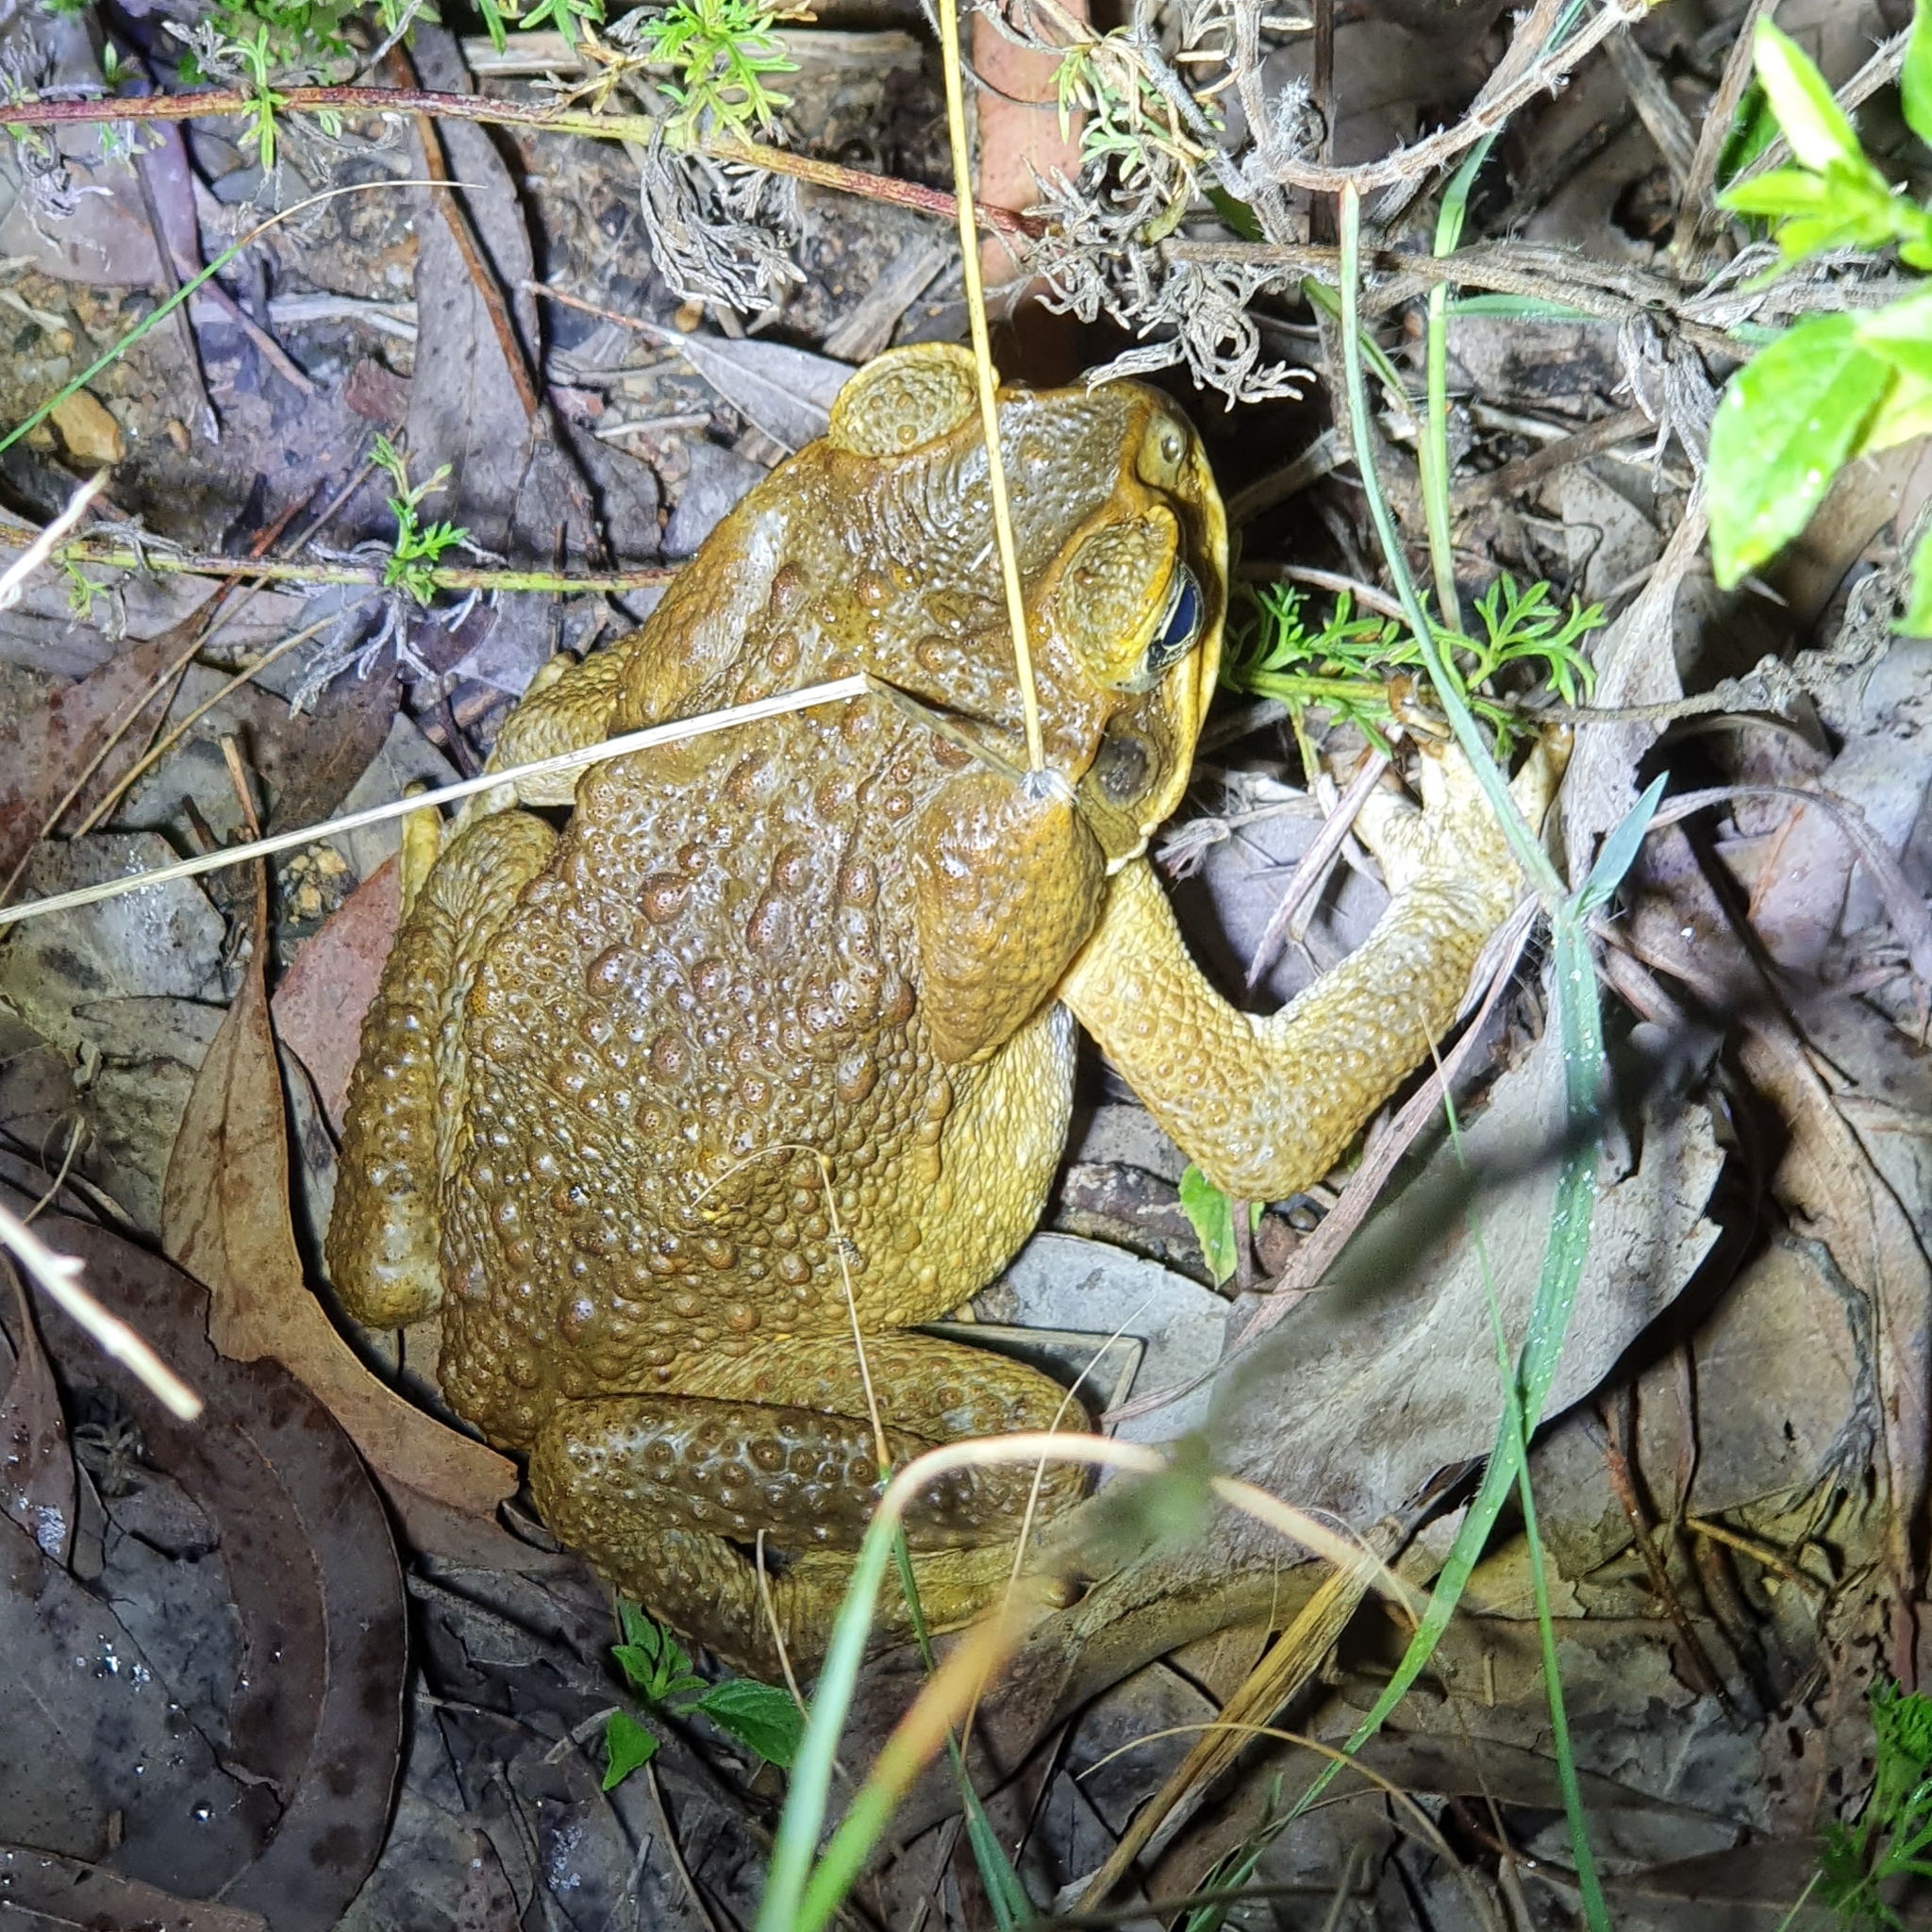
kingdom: Animalia
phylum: Chordata
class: Amphibia
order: Anura
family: Bufonidae
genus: Rhinella
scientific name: Rhinella marina
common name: Cane toad
